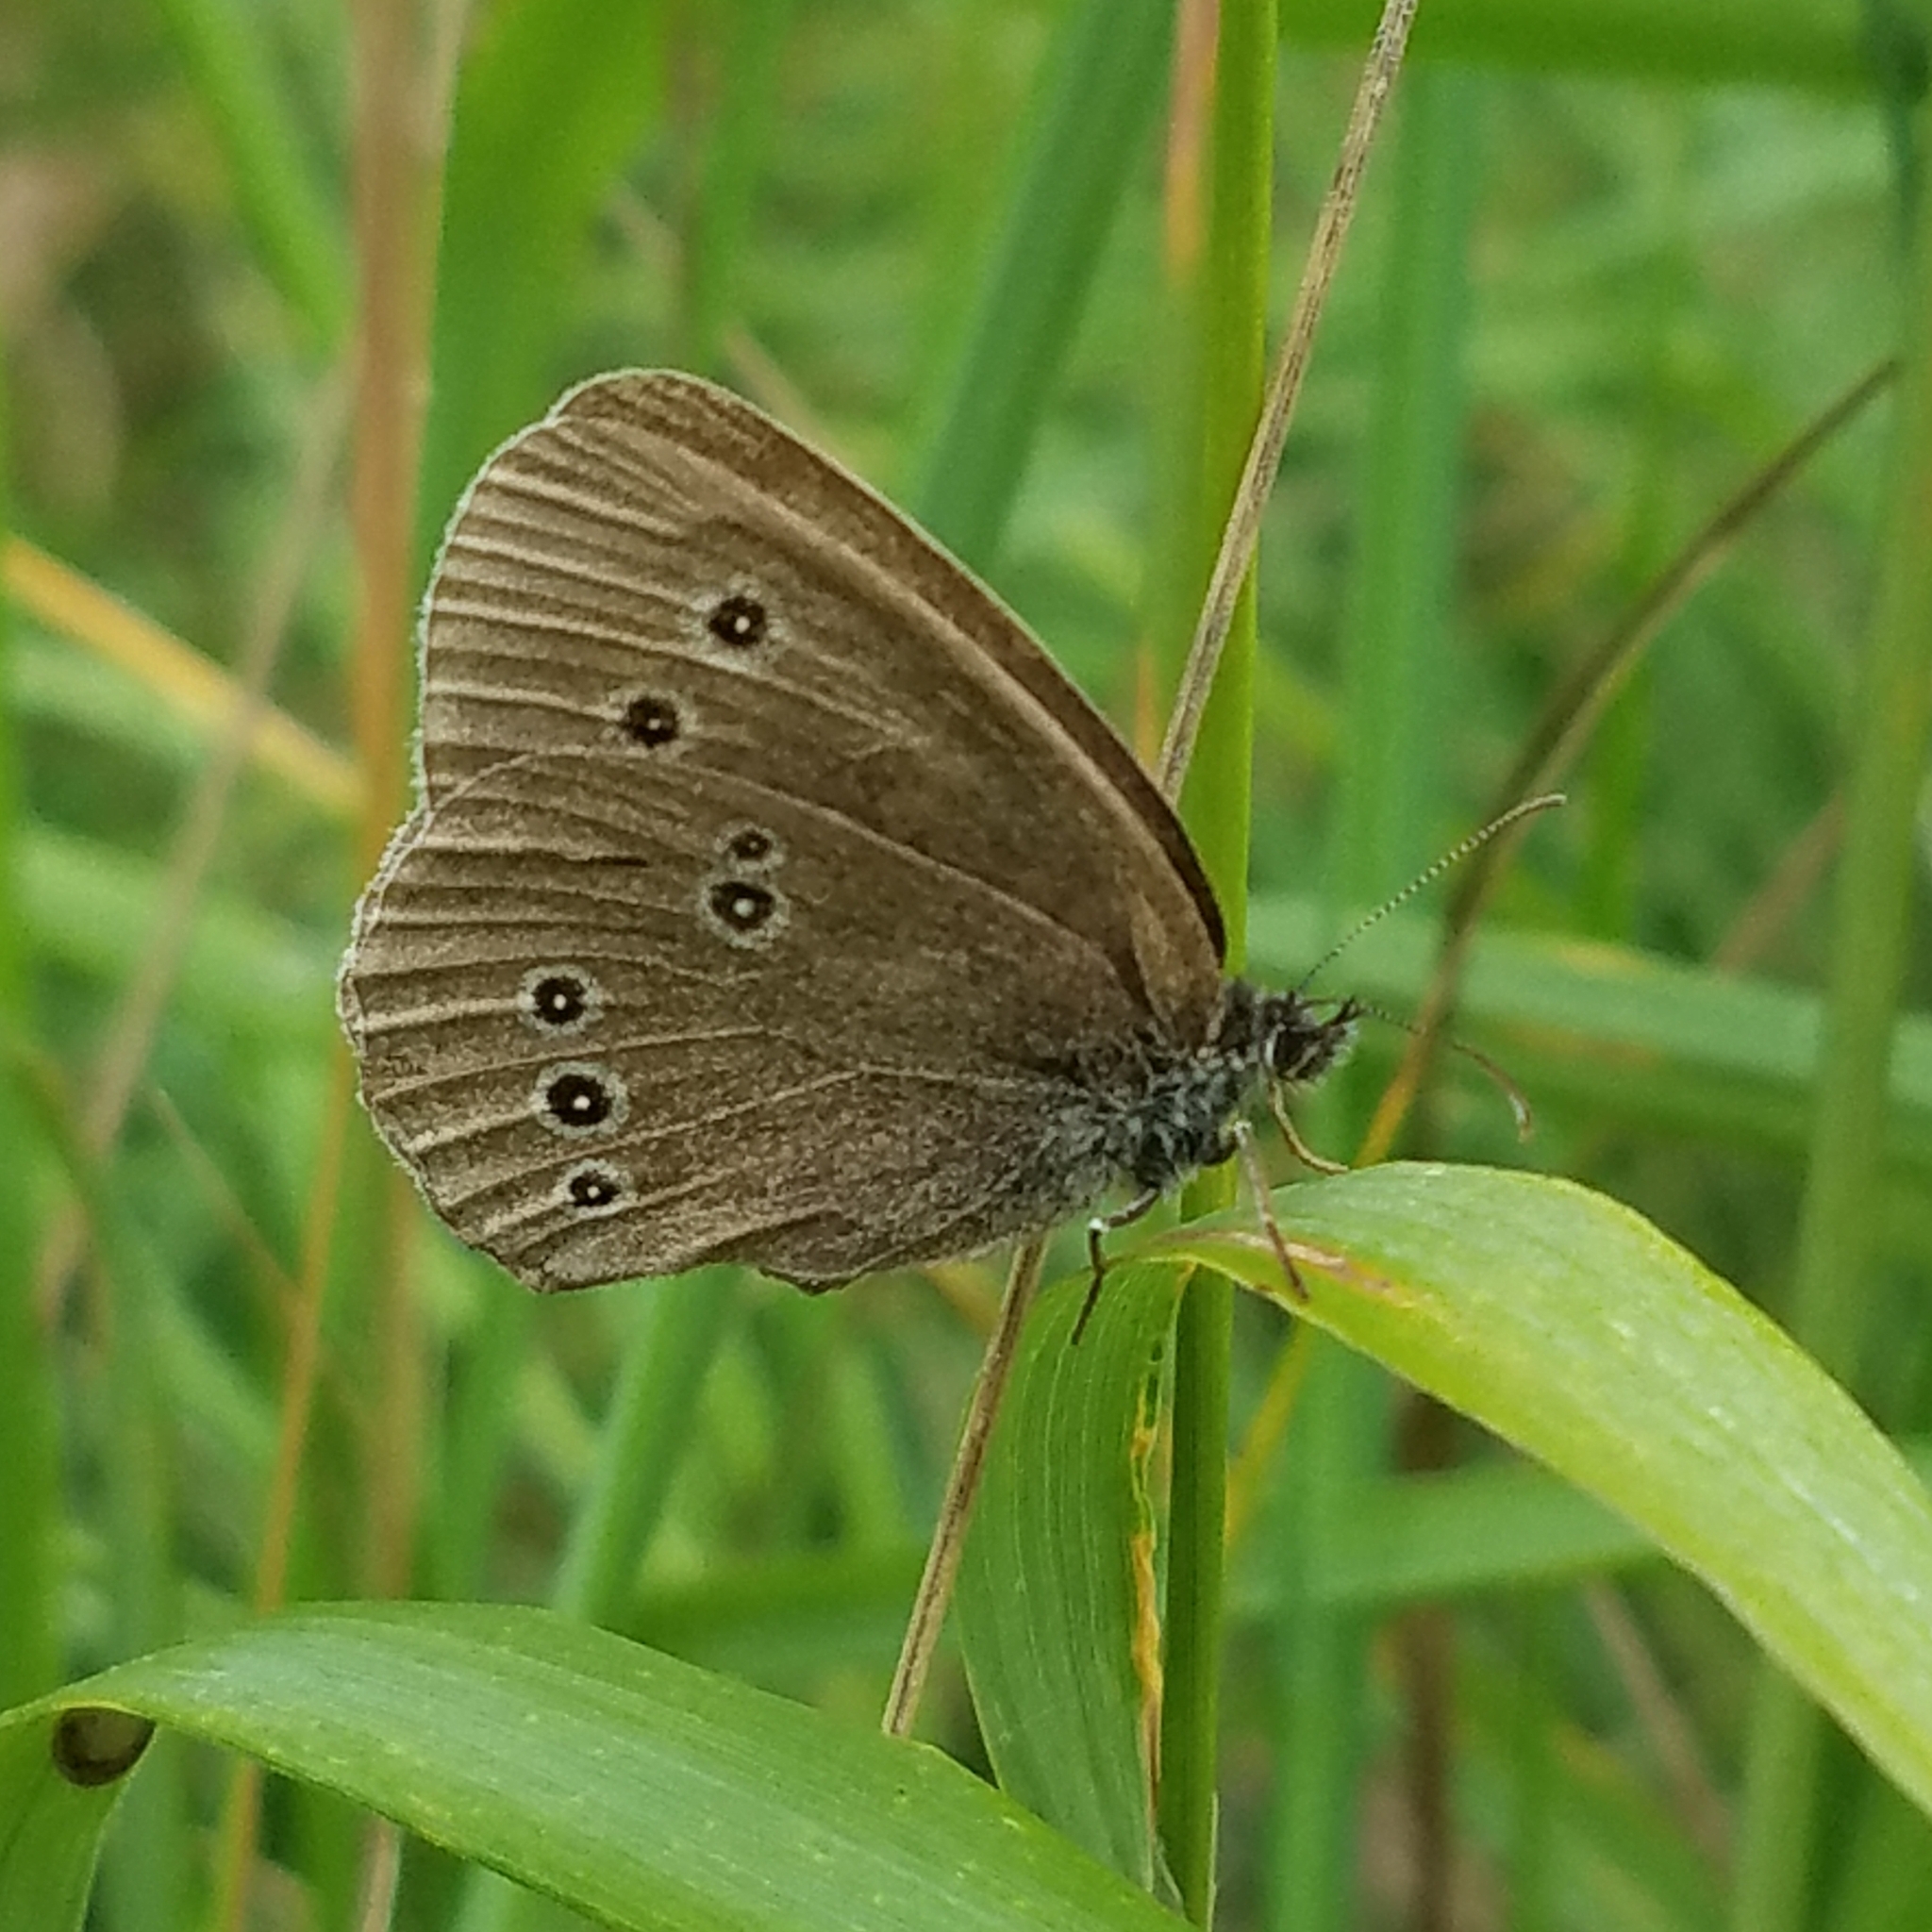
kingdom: Animalia
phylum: Arthropoda
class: Insecta
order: Lepidoptera
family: Nymphalidae
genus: Aphantopus
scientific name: Aphantopus hyperantus
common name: Ringlet
